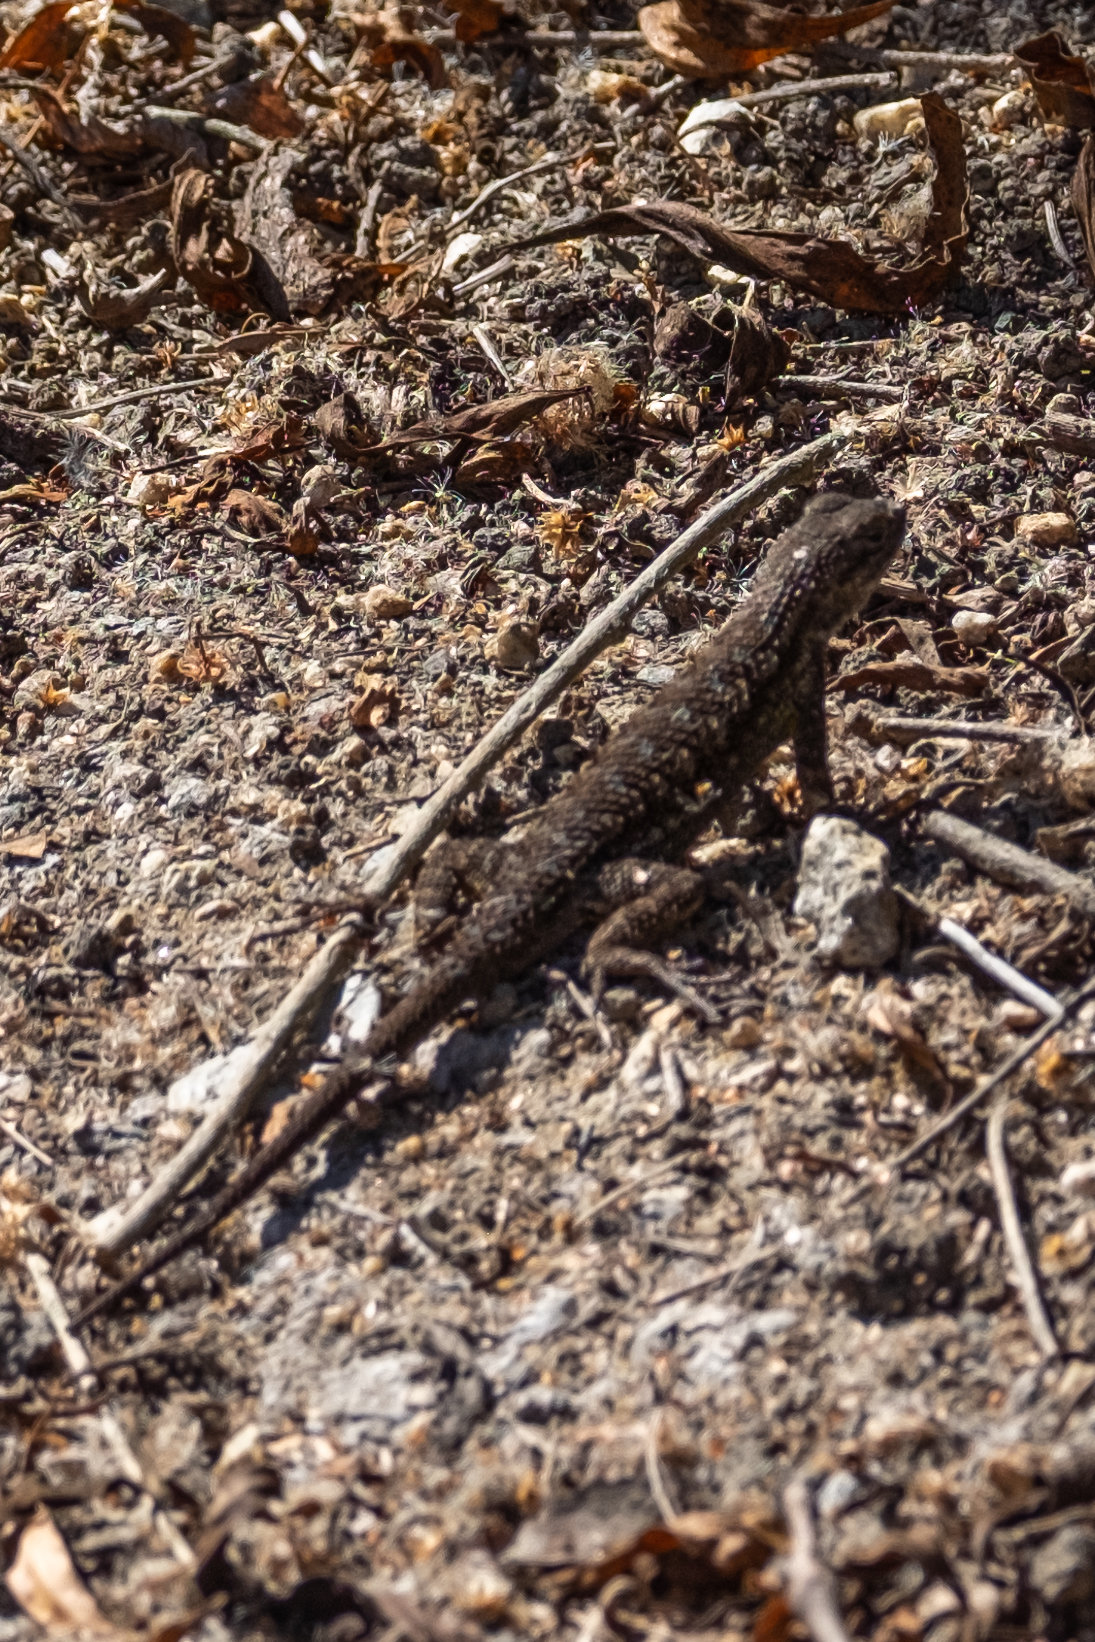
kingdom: Animalia
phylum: Chordata
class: Squamata
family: Phrynosomatidae
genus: Sceloporus
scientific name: Sceloporus occidentalis
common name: Western fence lizard
